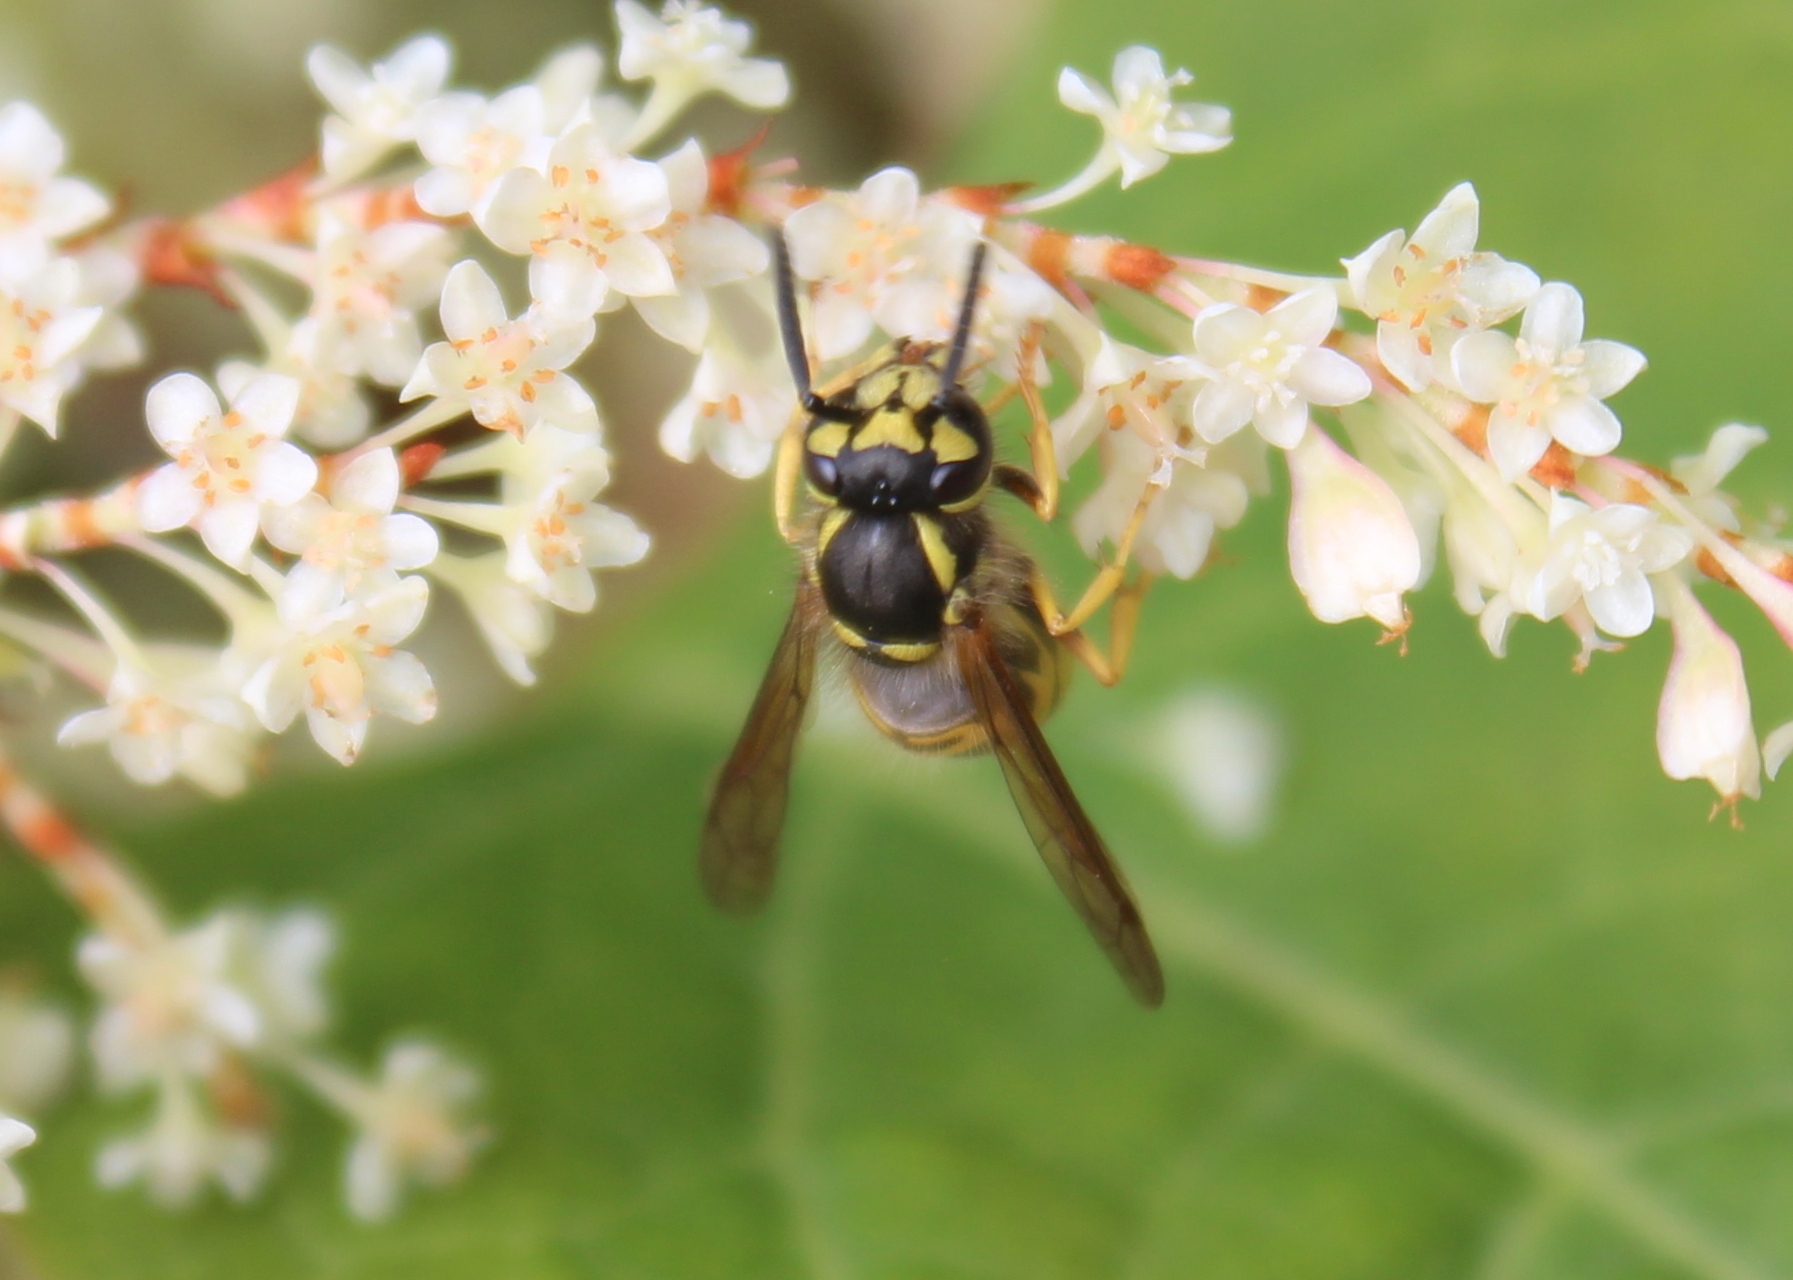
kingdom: Animalia
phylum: Arthropoda
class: Insecta
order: Hymenoptera
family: Vespidae
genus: Vespula
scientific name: Vespula maculifrons
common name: Eastern yellowjacket
